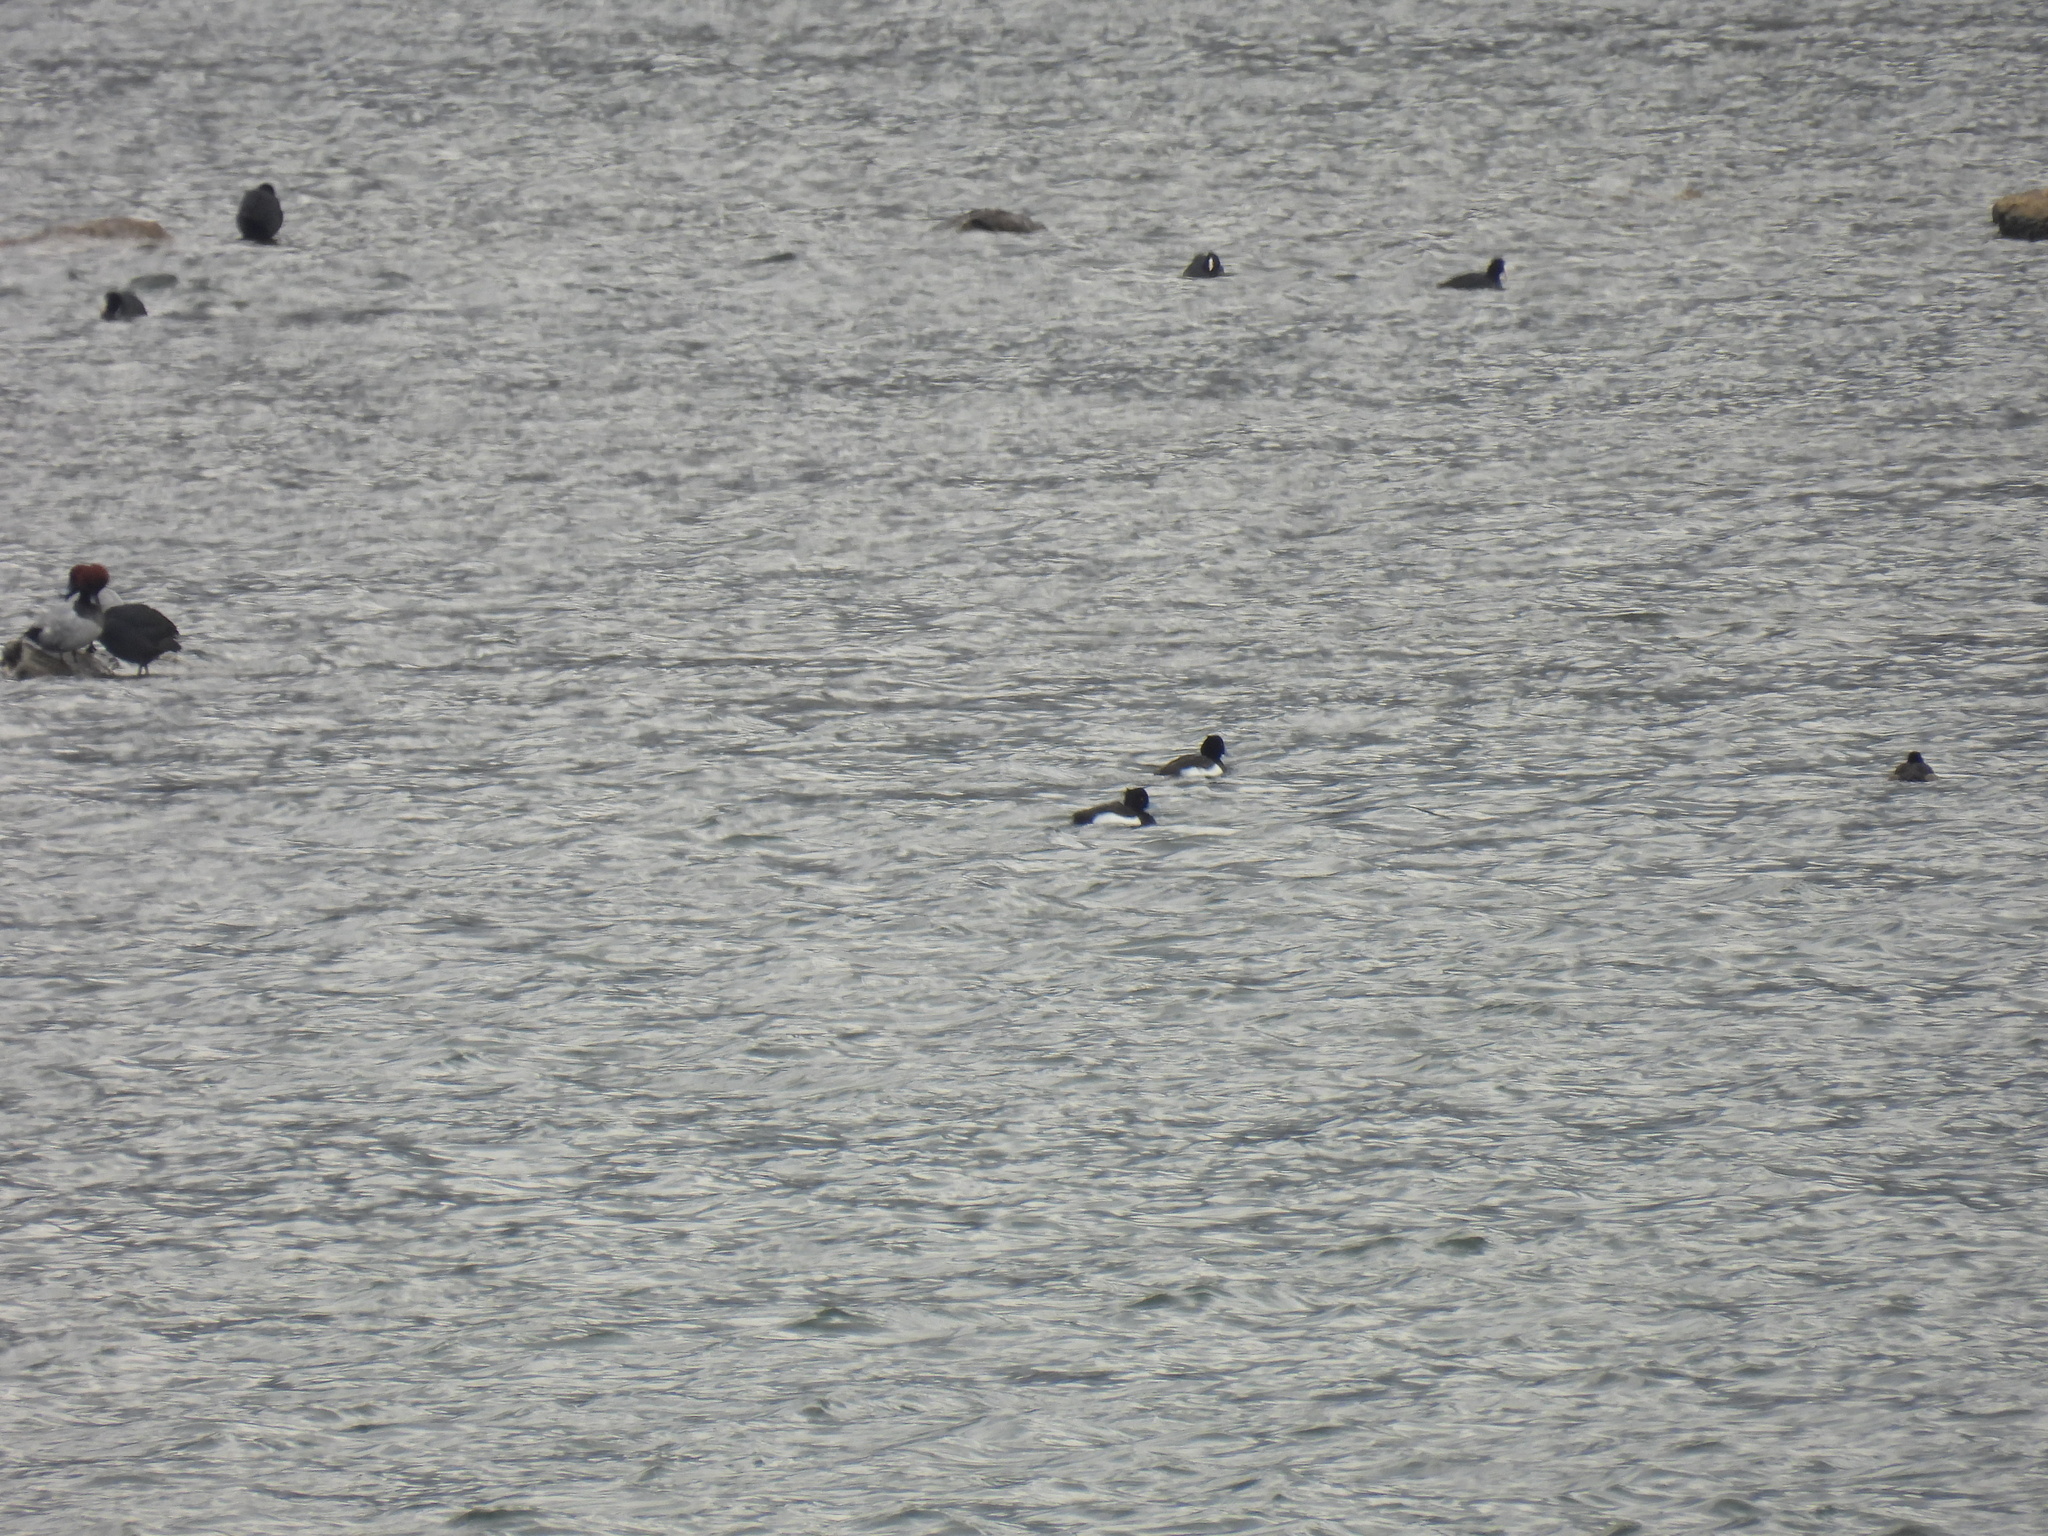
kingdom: Animalia
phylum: Chordata
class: Aves
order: Anseriformes
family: Anatidae
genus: Aythya
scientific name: Aythya fuligula
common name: Tufted duck
